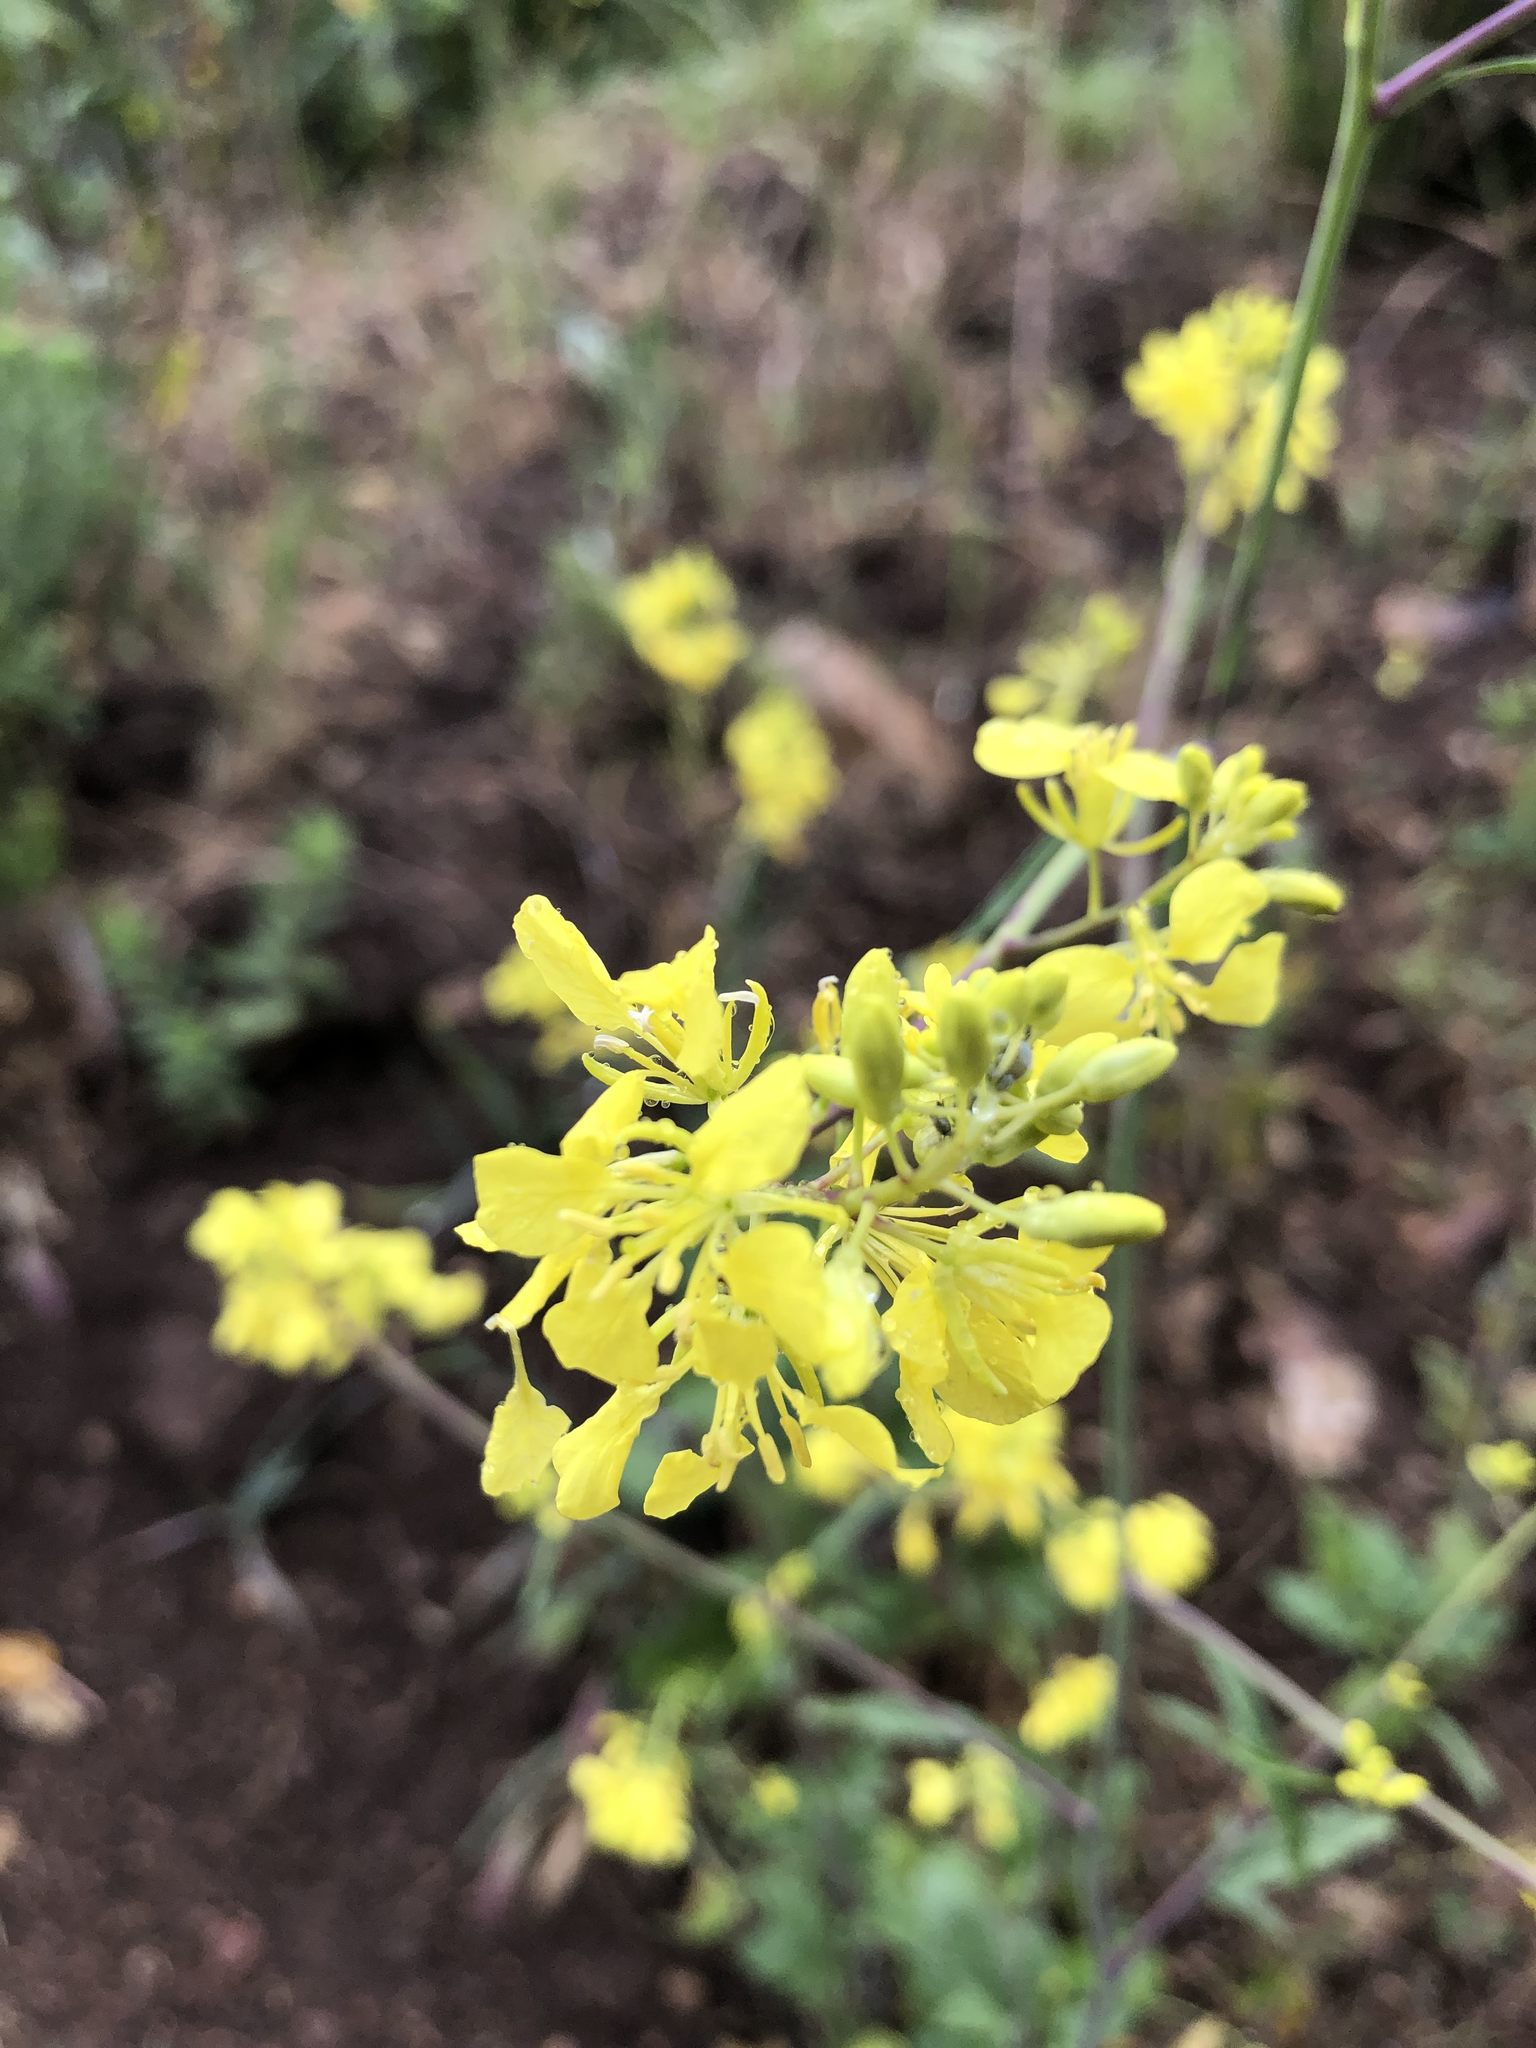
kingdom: Plantae
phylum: Tracheophyta
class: Magnoliopsida
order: Brassicales
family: Brassicaceae
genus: Brassica
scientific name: Brassica nigra
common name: Black mustard
